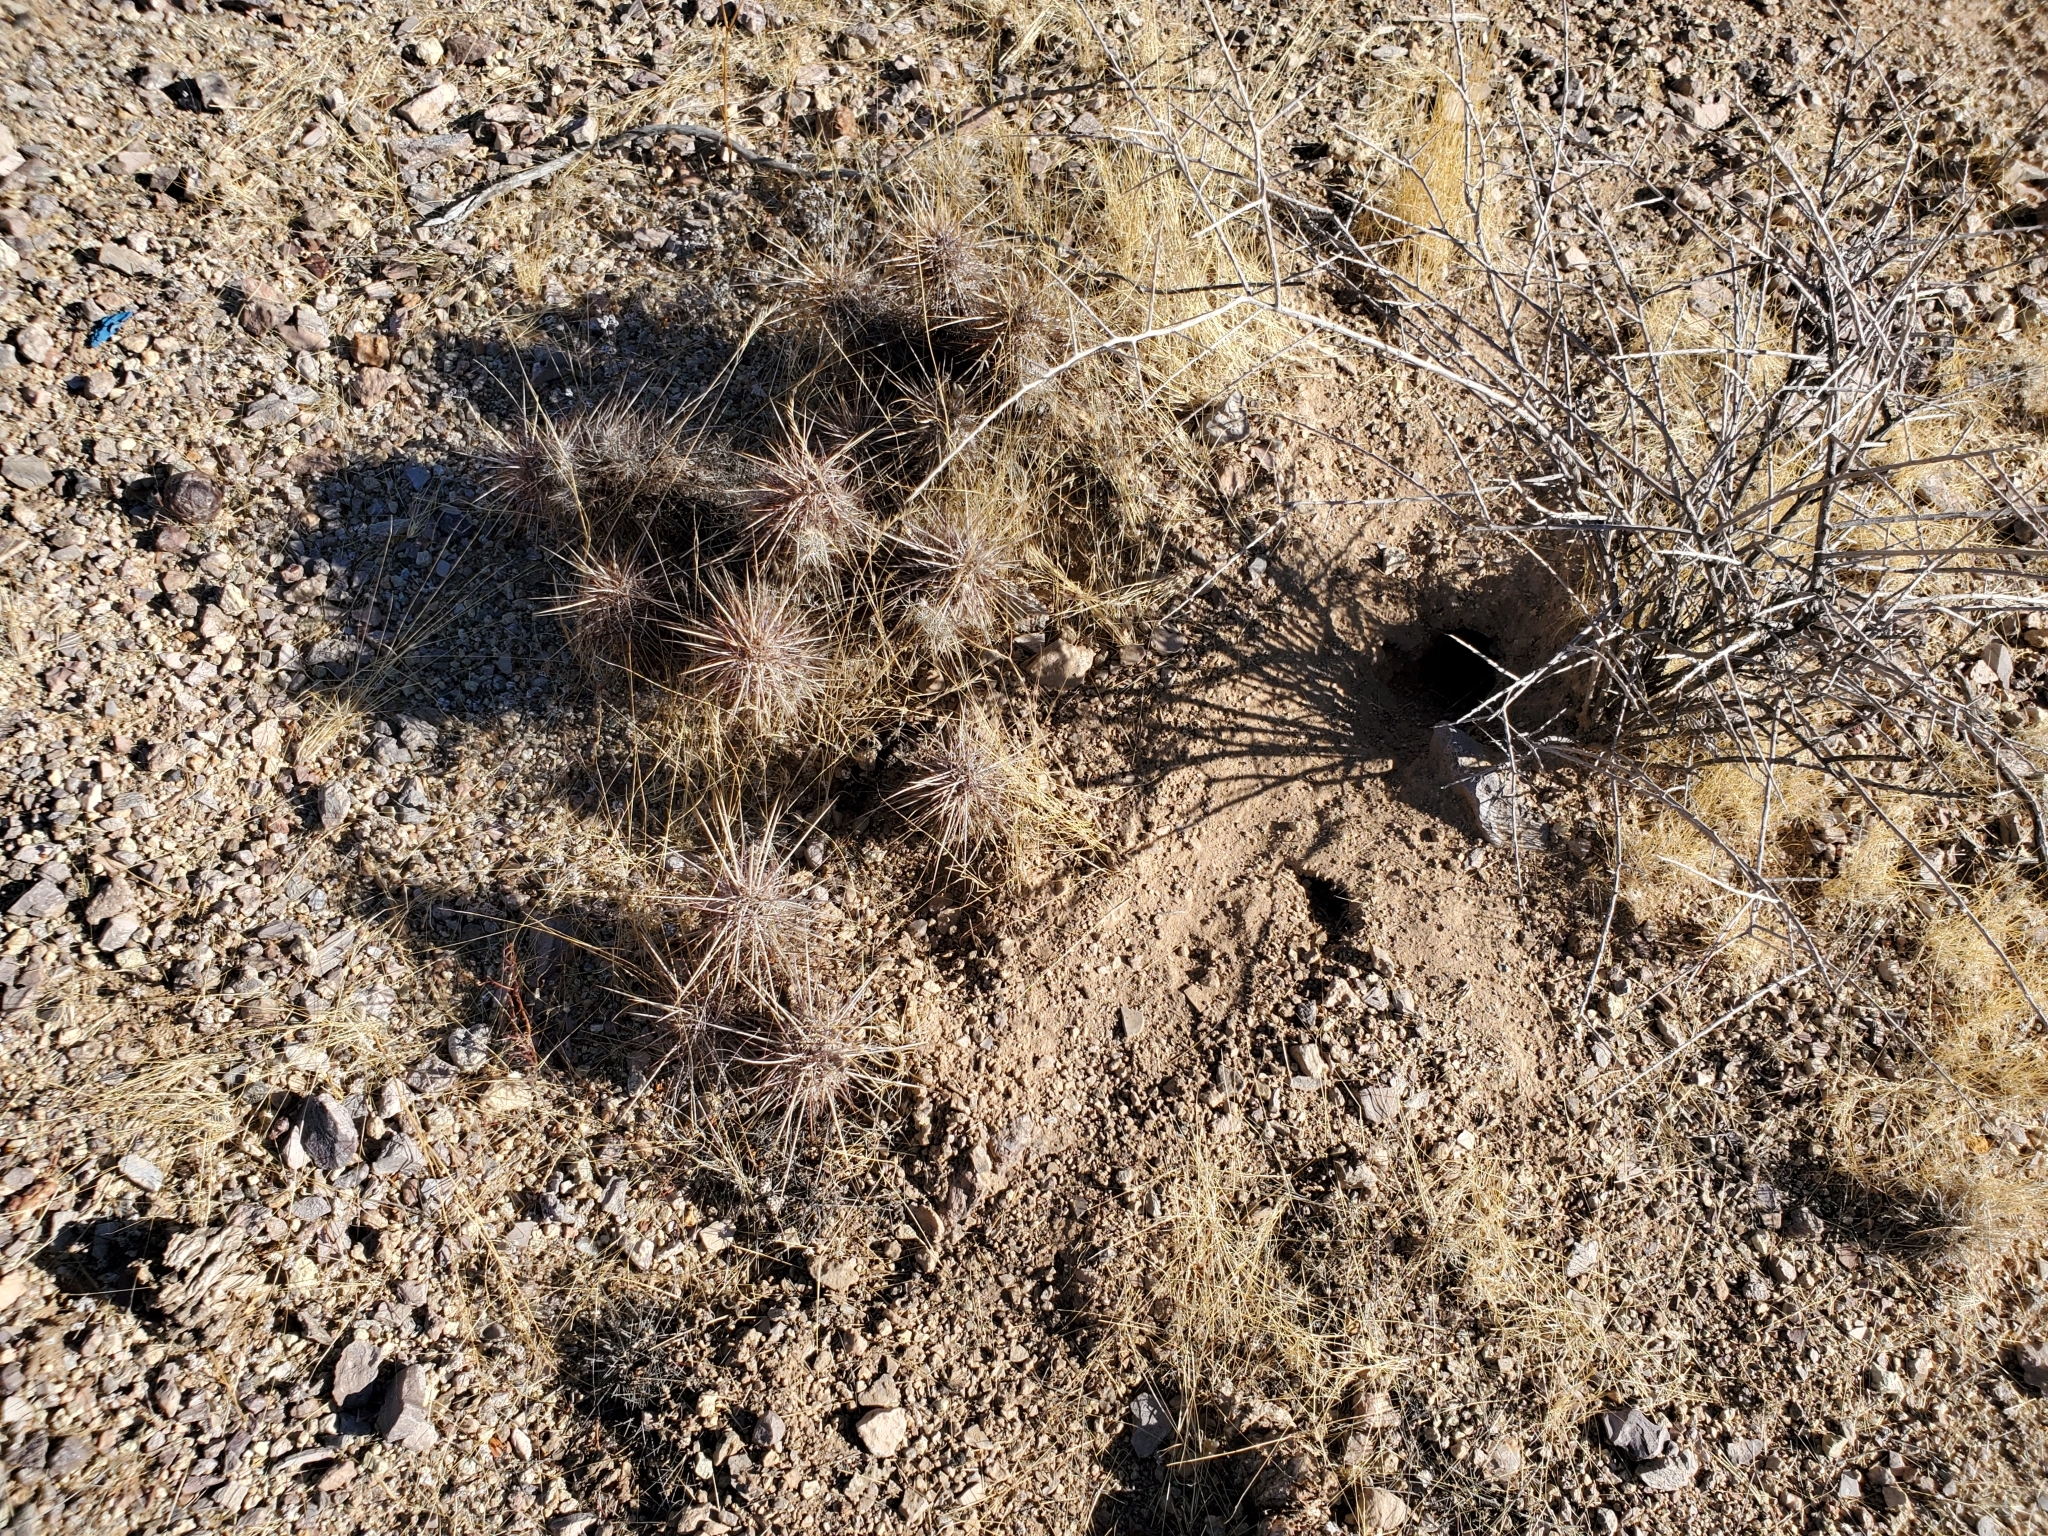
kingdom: Plantae
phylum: Tracheophyta
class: Magnoliopsida
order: Caryophyllales
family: Cactaceae
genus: Echinocereus
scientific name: Echinocereus engelmannii
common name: Engelmann's hedgehog cactus
